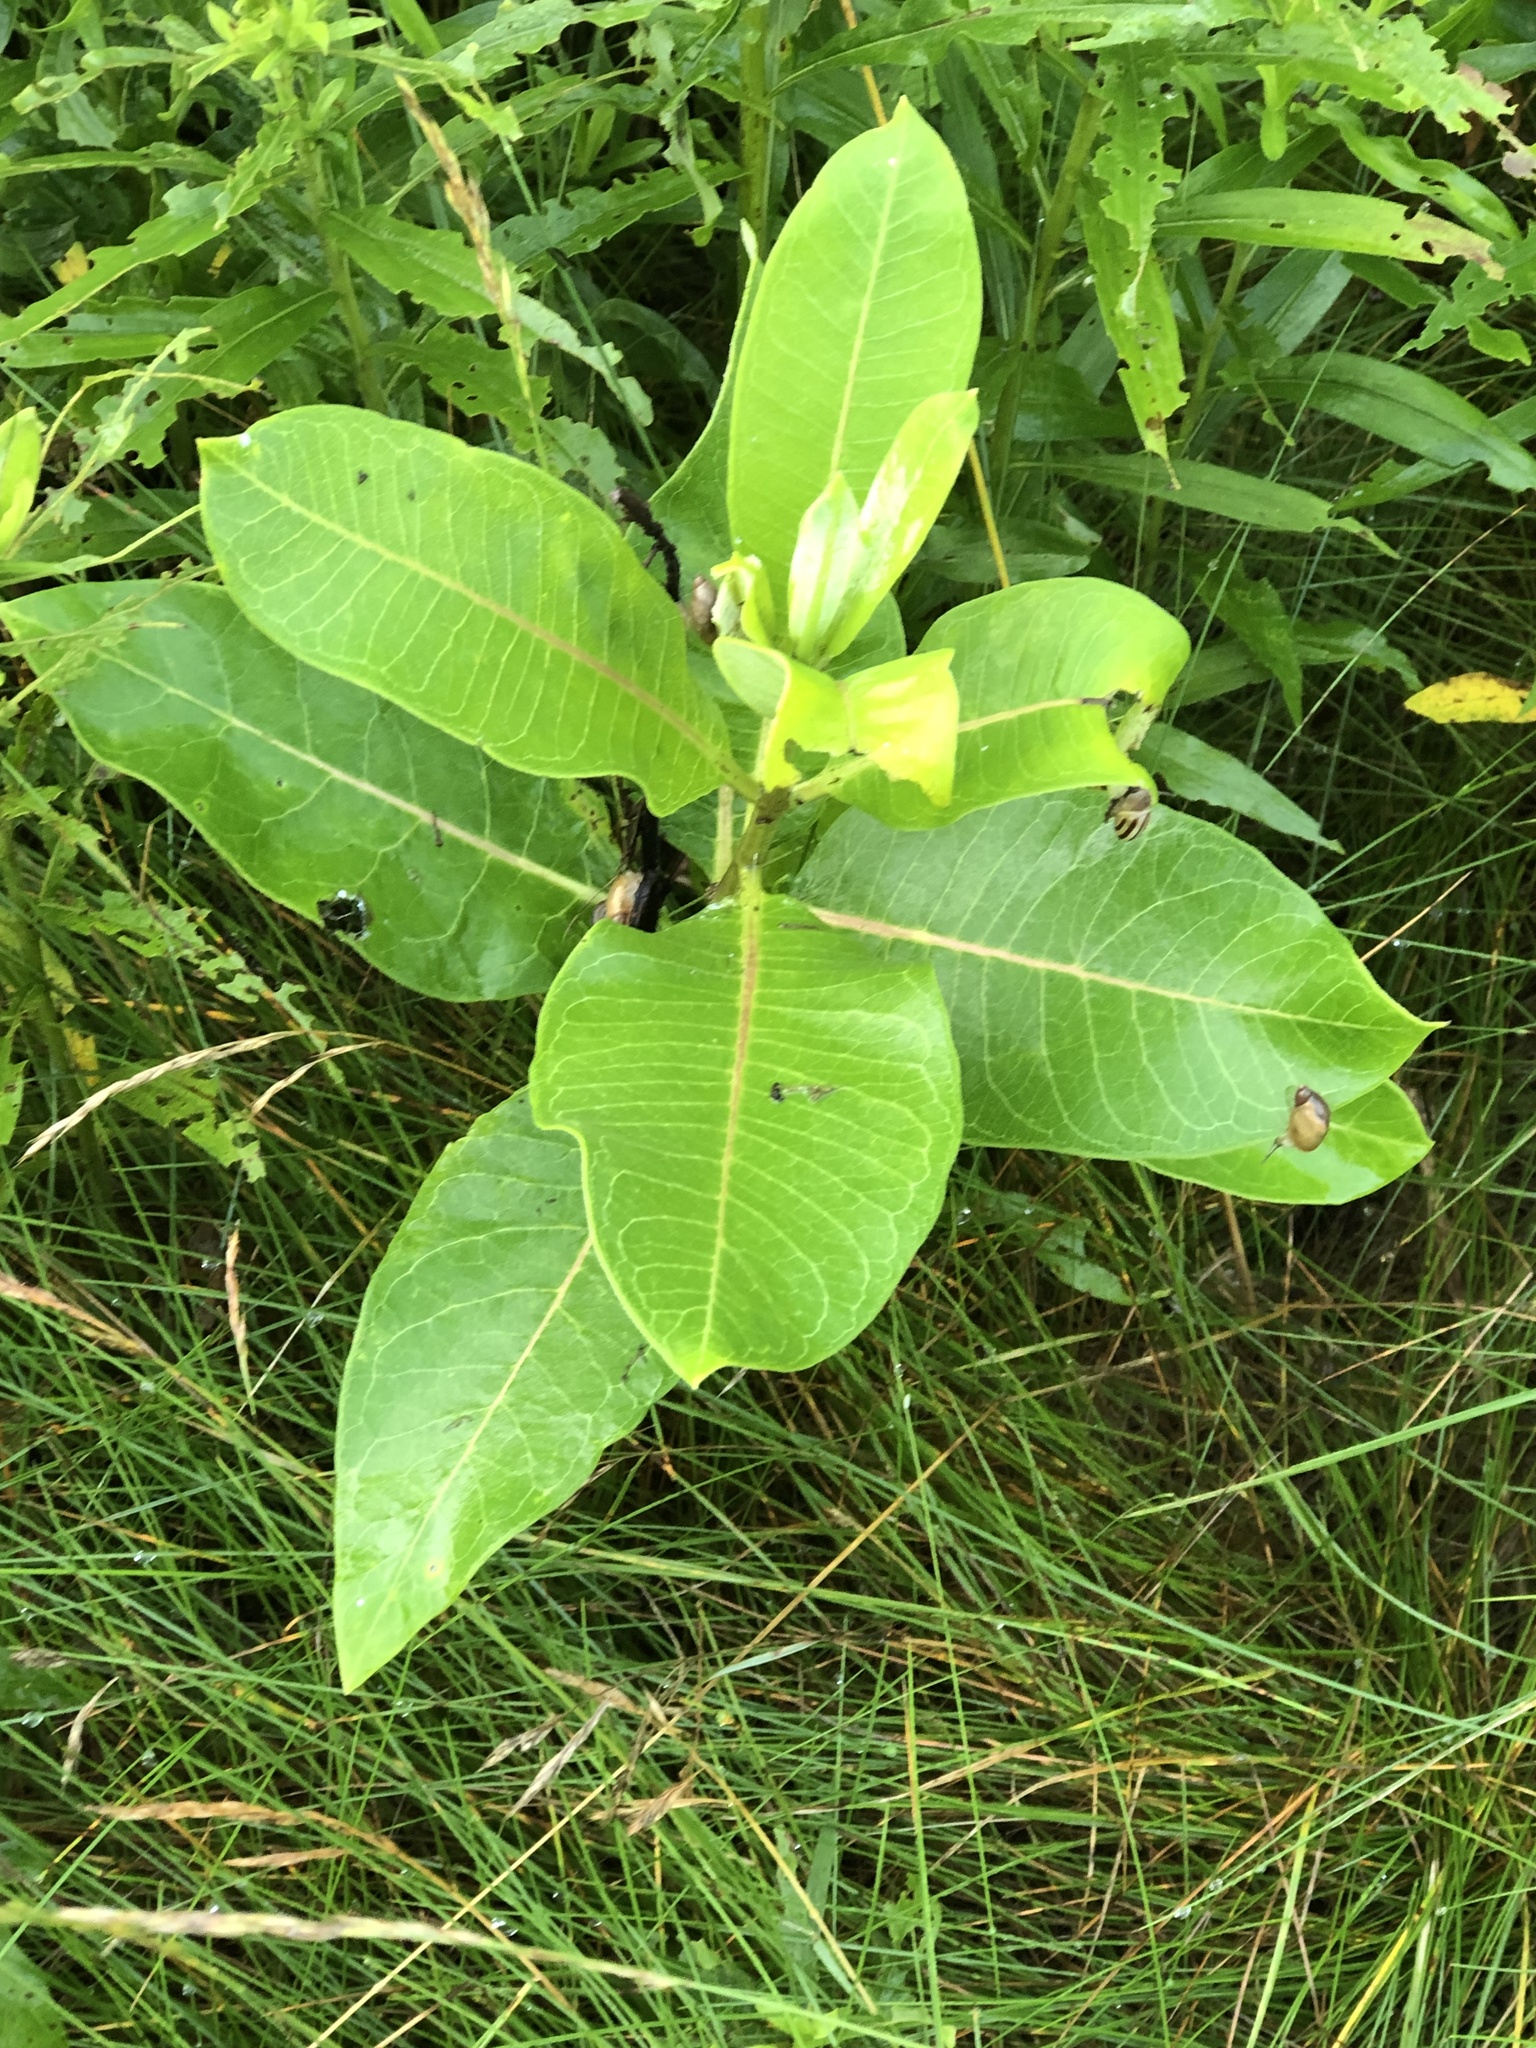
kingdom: Plantae
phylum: Tracheophyta
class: Magnoliopsida
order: Gentianales
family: Apocynaceae
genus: Asclepias
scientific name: Asclepias syriaca
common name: Common milkweed
